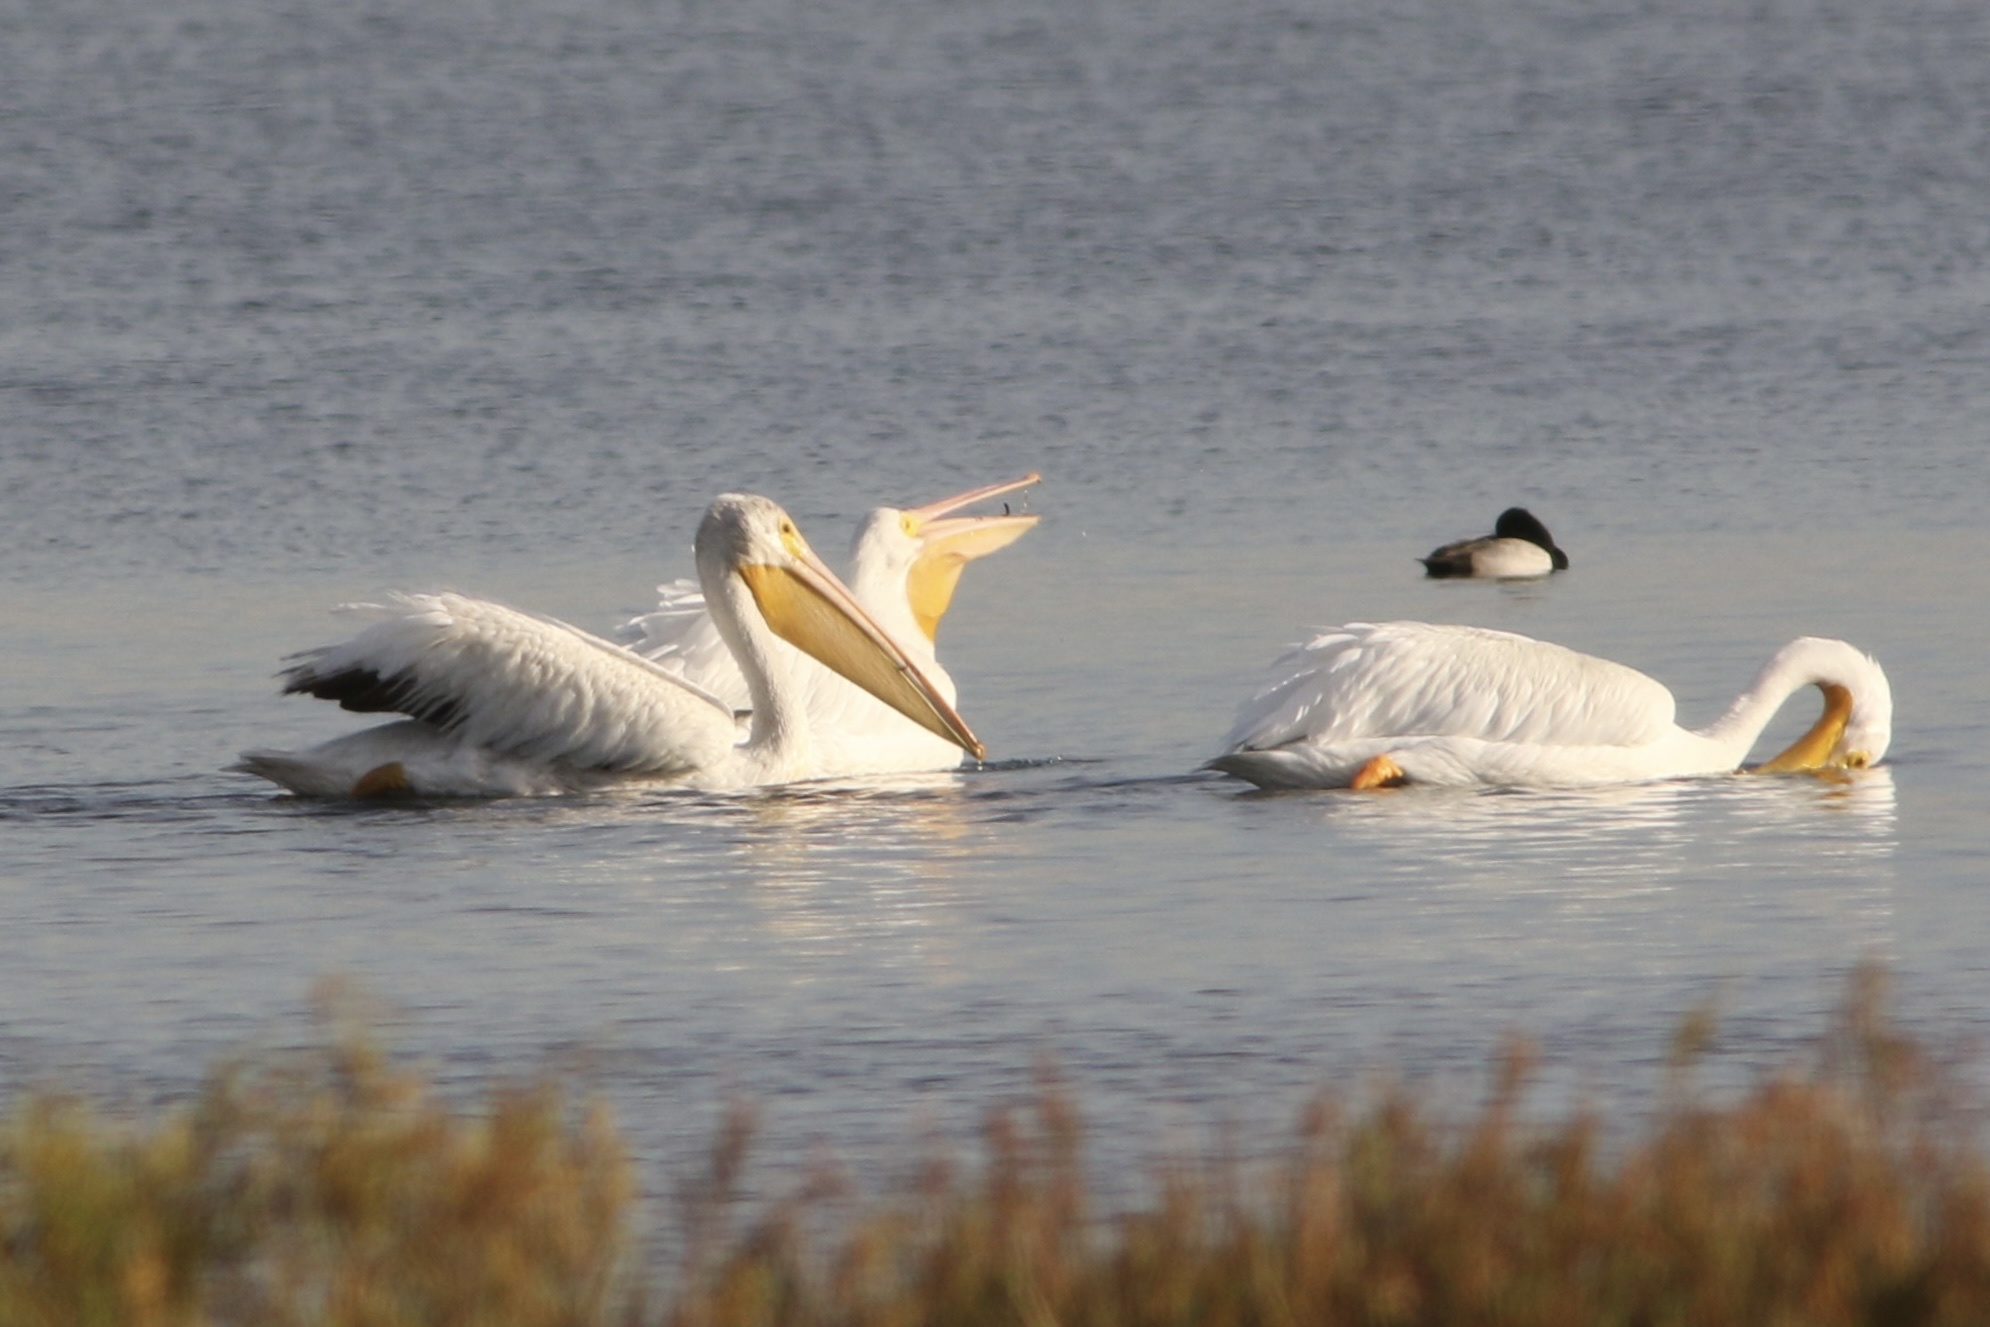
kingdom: Animalia
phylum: Chordata
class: Aves
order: Pelecaniformes
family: Pelecanidae
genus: Pelecanus
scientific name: Pelecanus erythrorhynchos
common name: American white pelican
